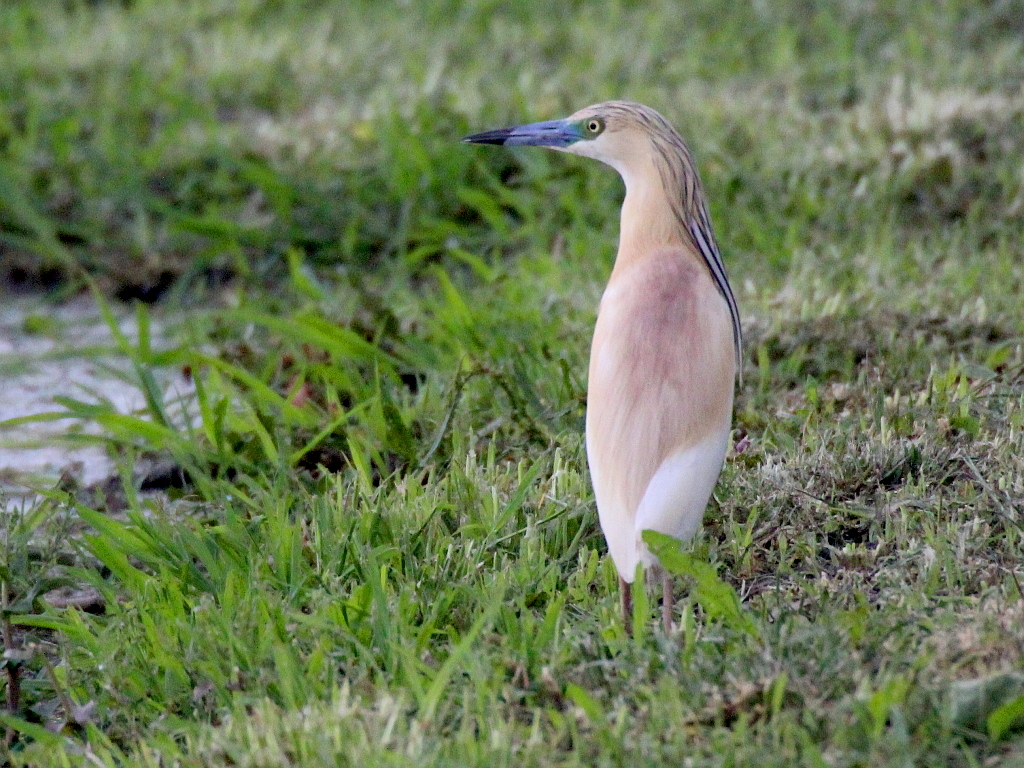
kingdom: Animalia
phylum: Chordata
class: Aves
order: Pelecaniformes
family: Ardeidae
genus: Ardeola
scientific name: Ardeola ralloides
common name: Squacco heron
